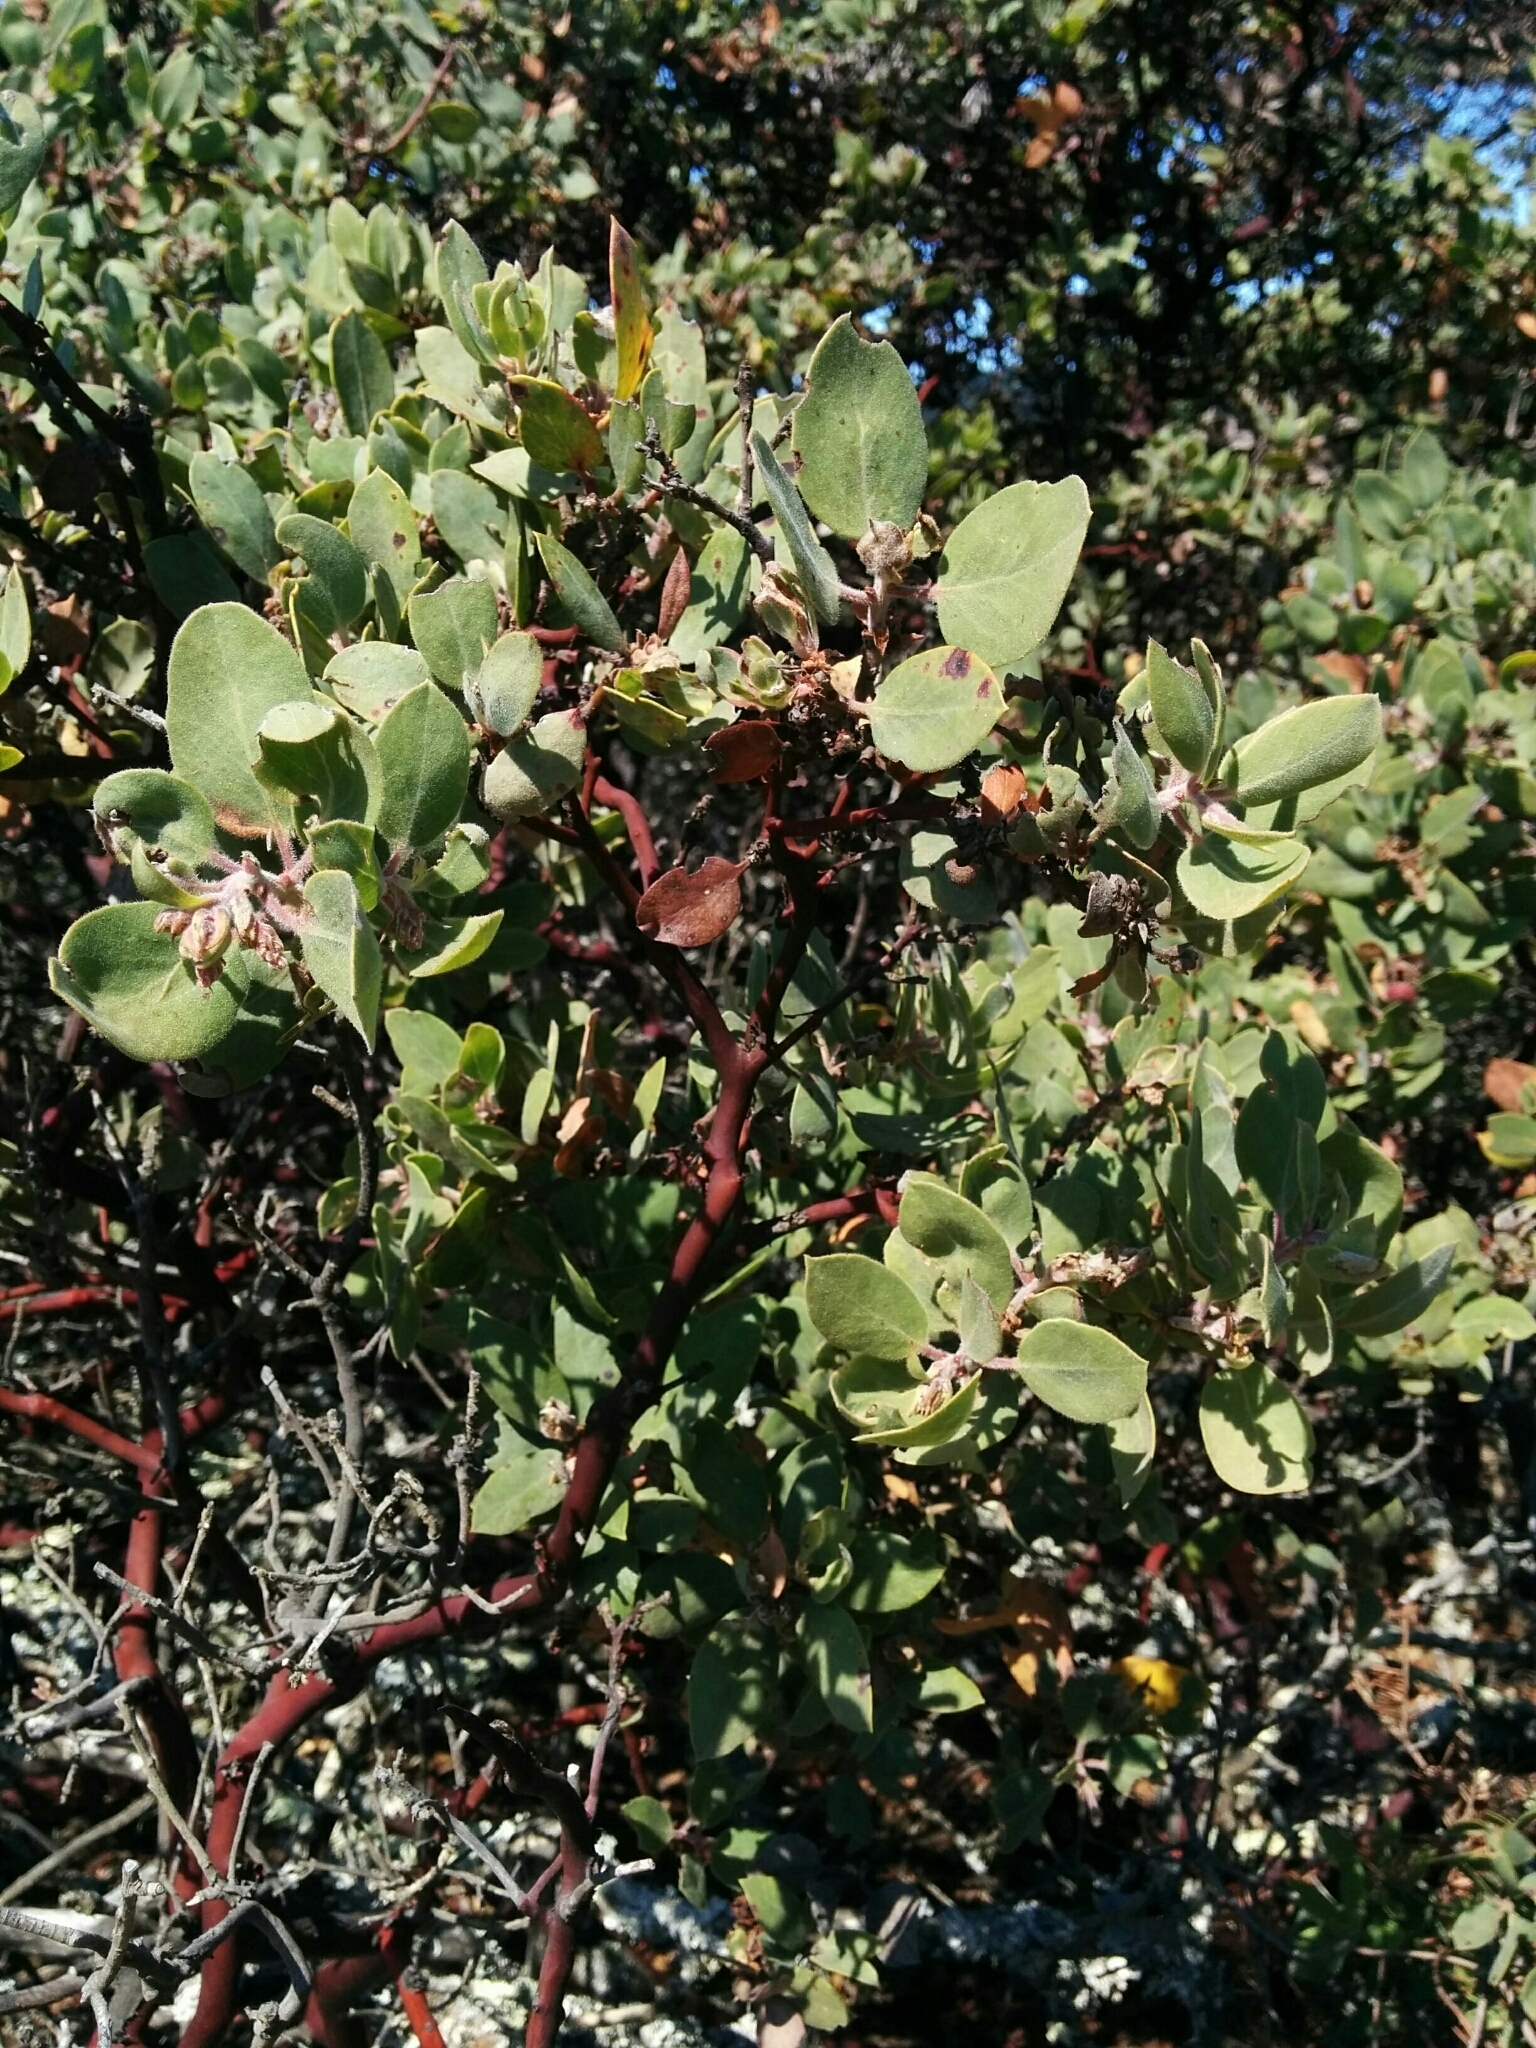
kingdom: Plantae
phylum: Tracheophyta
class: Magnoliopsida
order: Ericales
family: Ericaceae
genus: Arctostaphylos
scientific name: Arctostaphylos glandulosa
